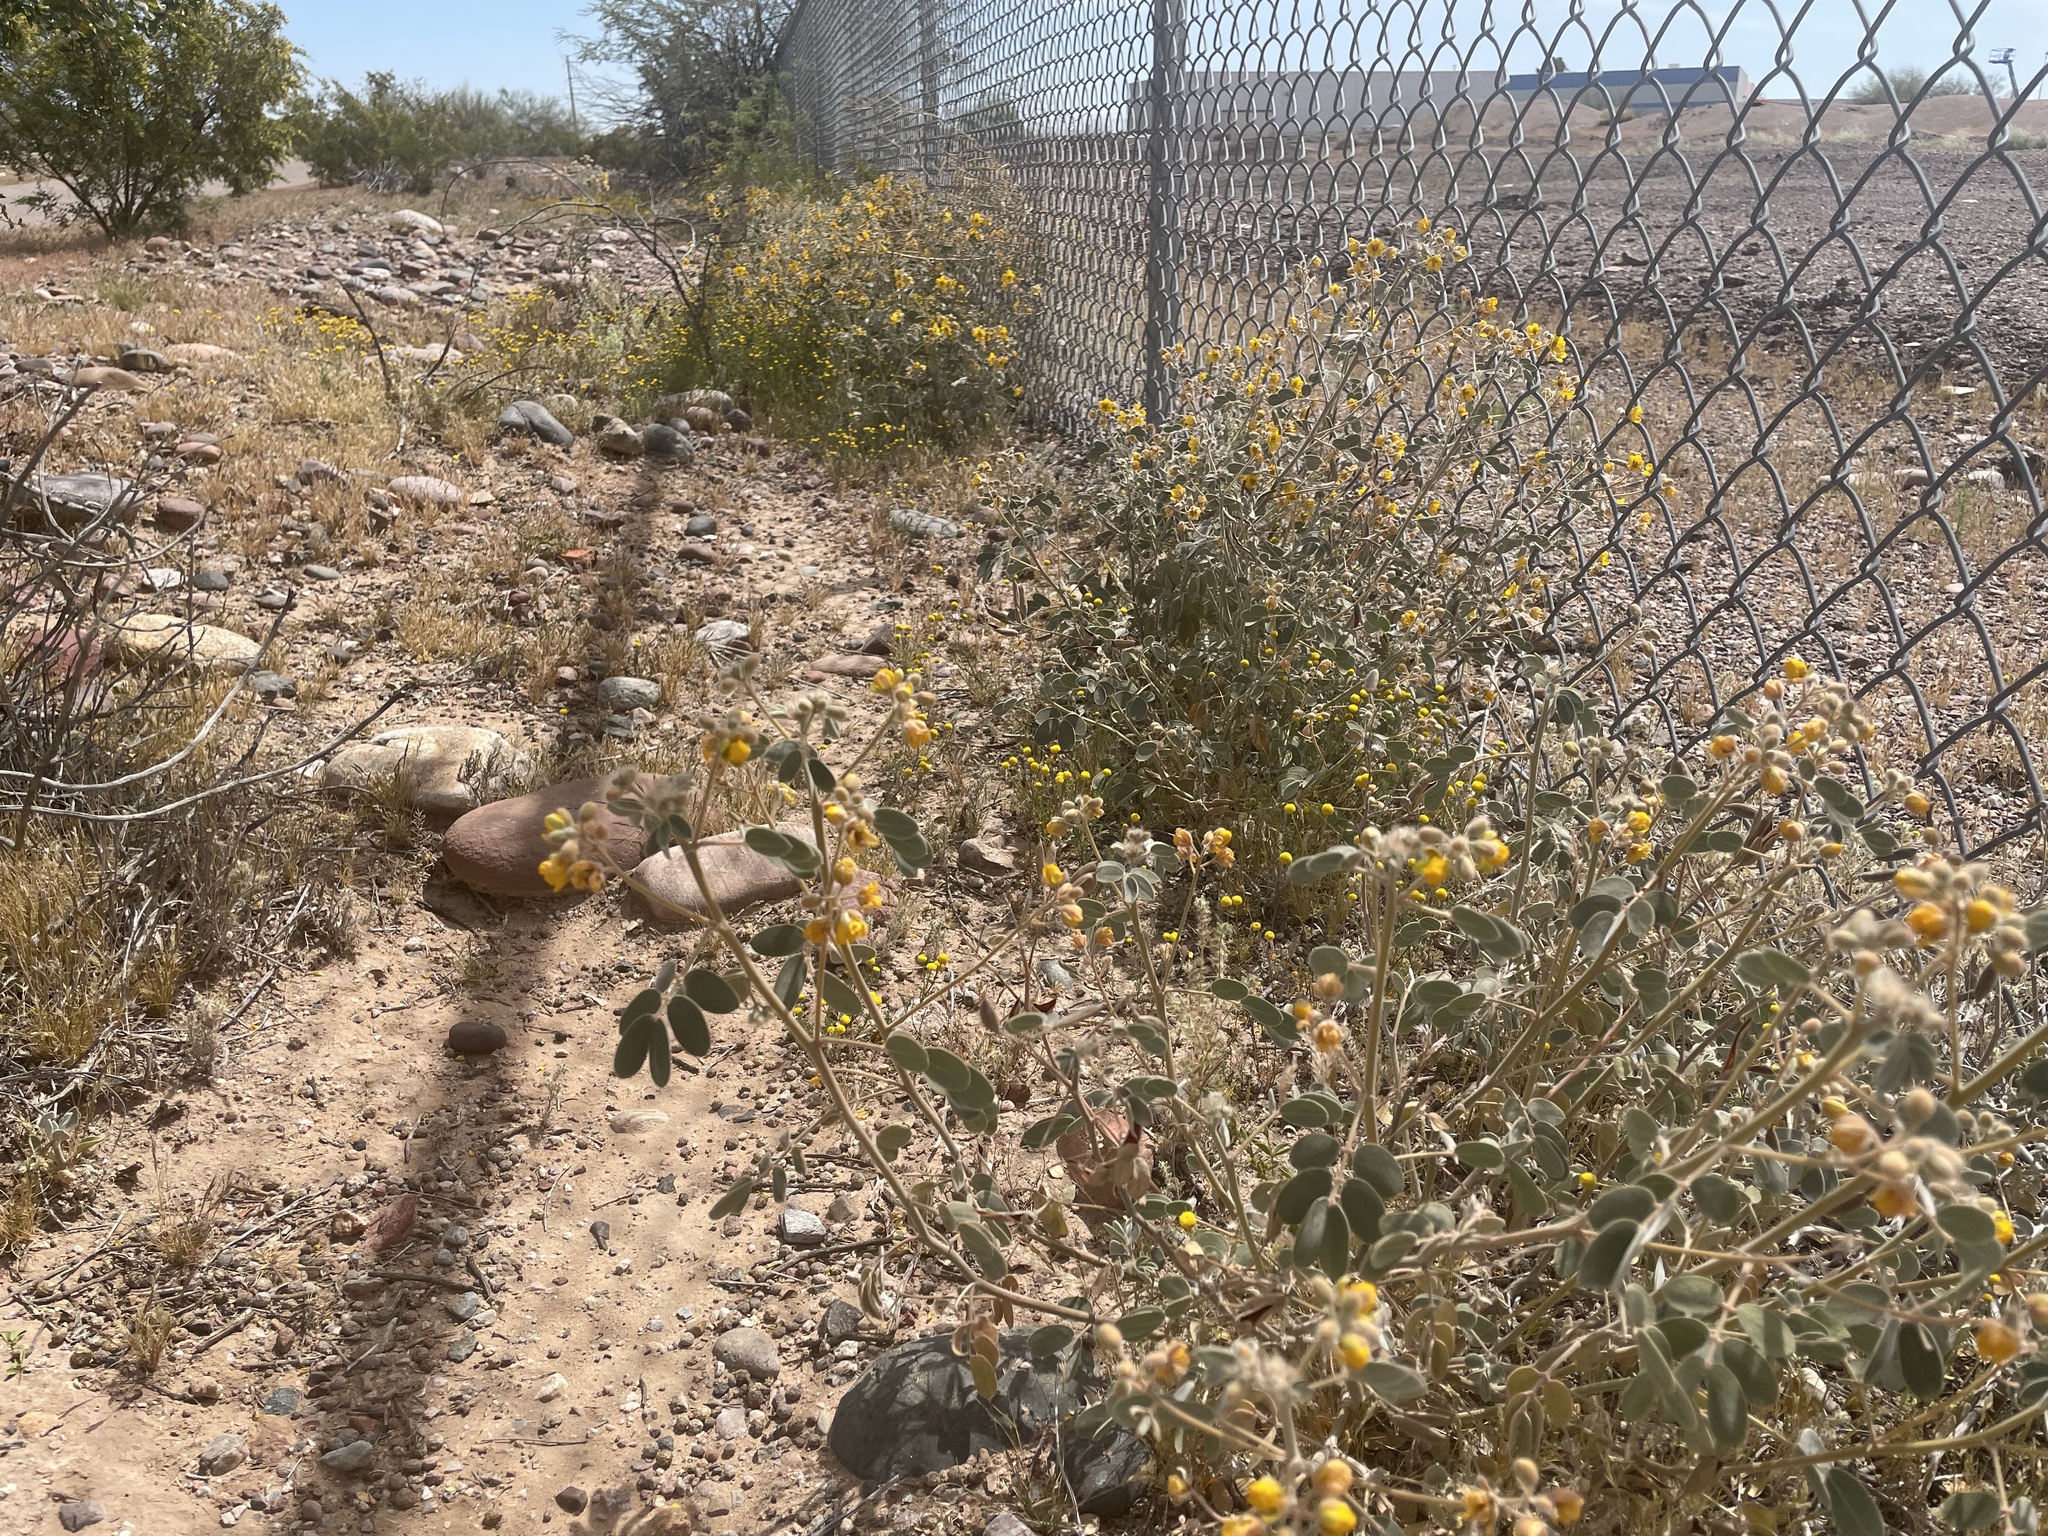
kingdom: Plantae
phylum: Tracheophyta
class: Magnoliopsida
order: Fabales
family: Fabaceae
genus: Senna
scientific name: Senna covesii
